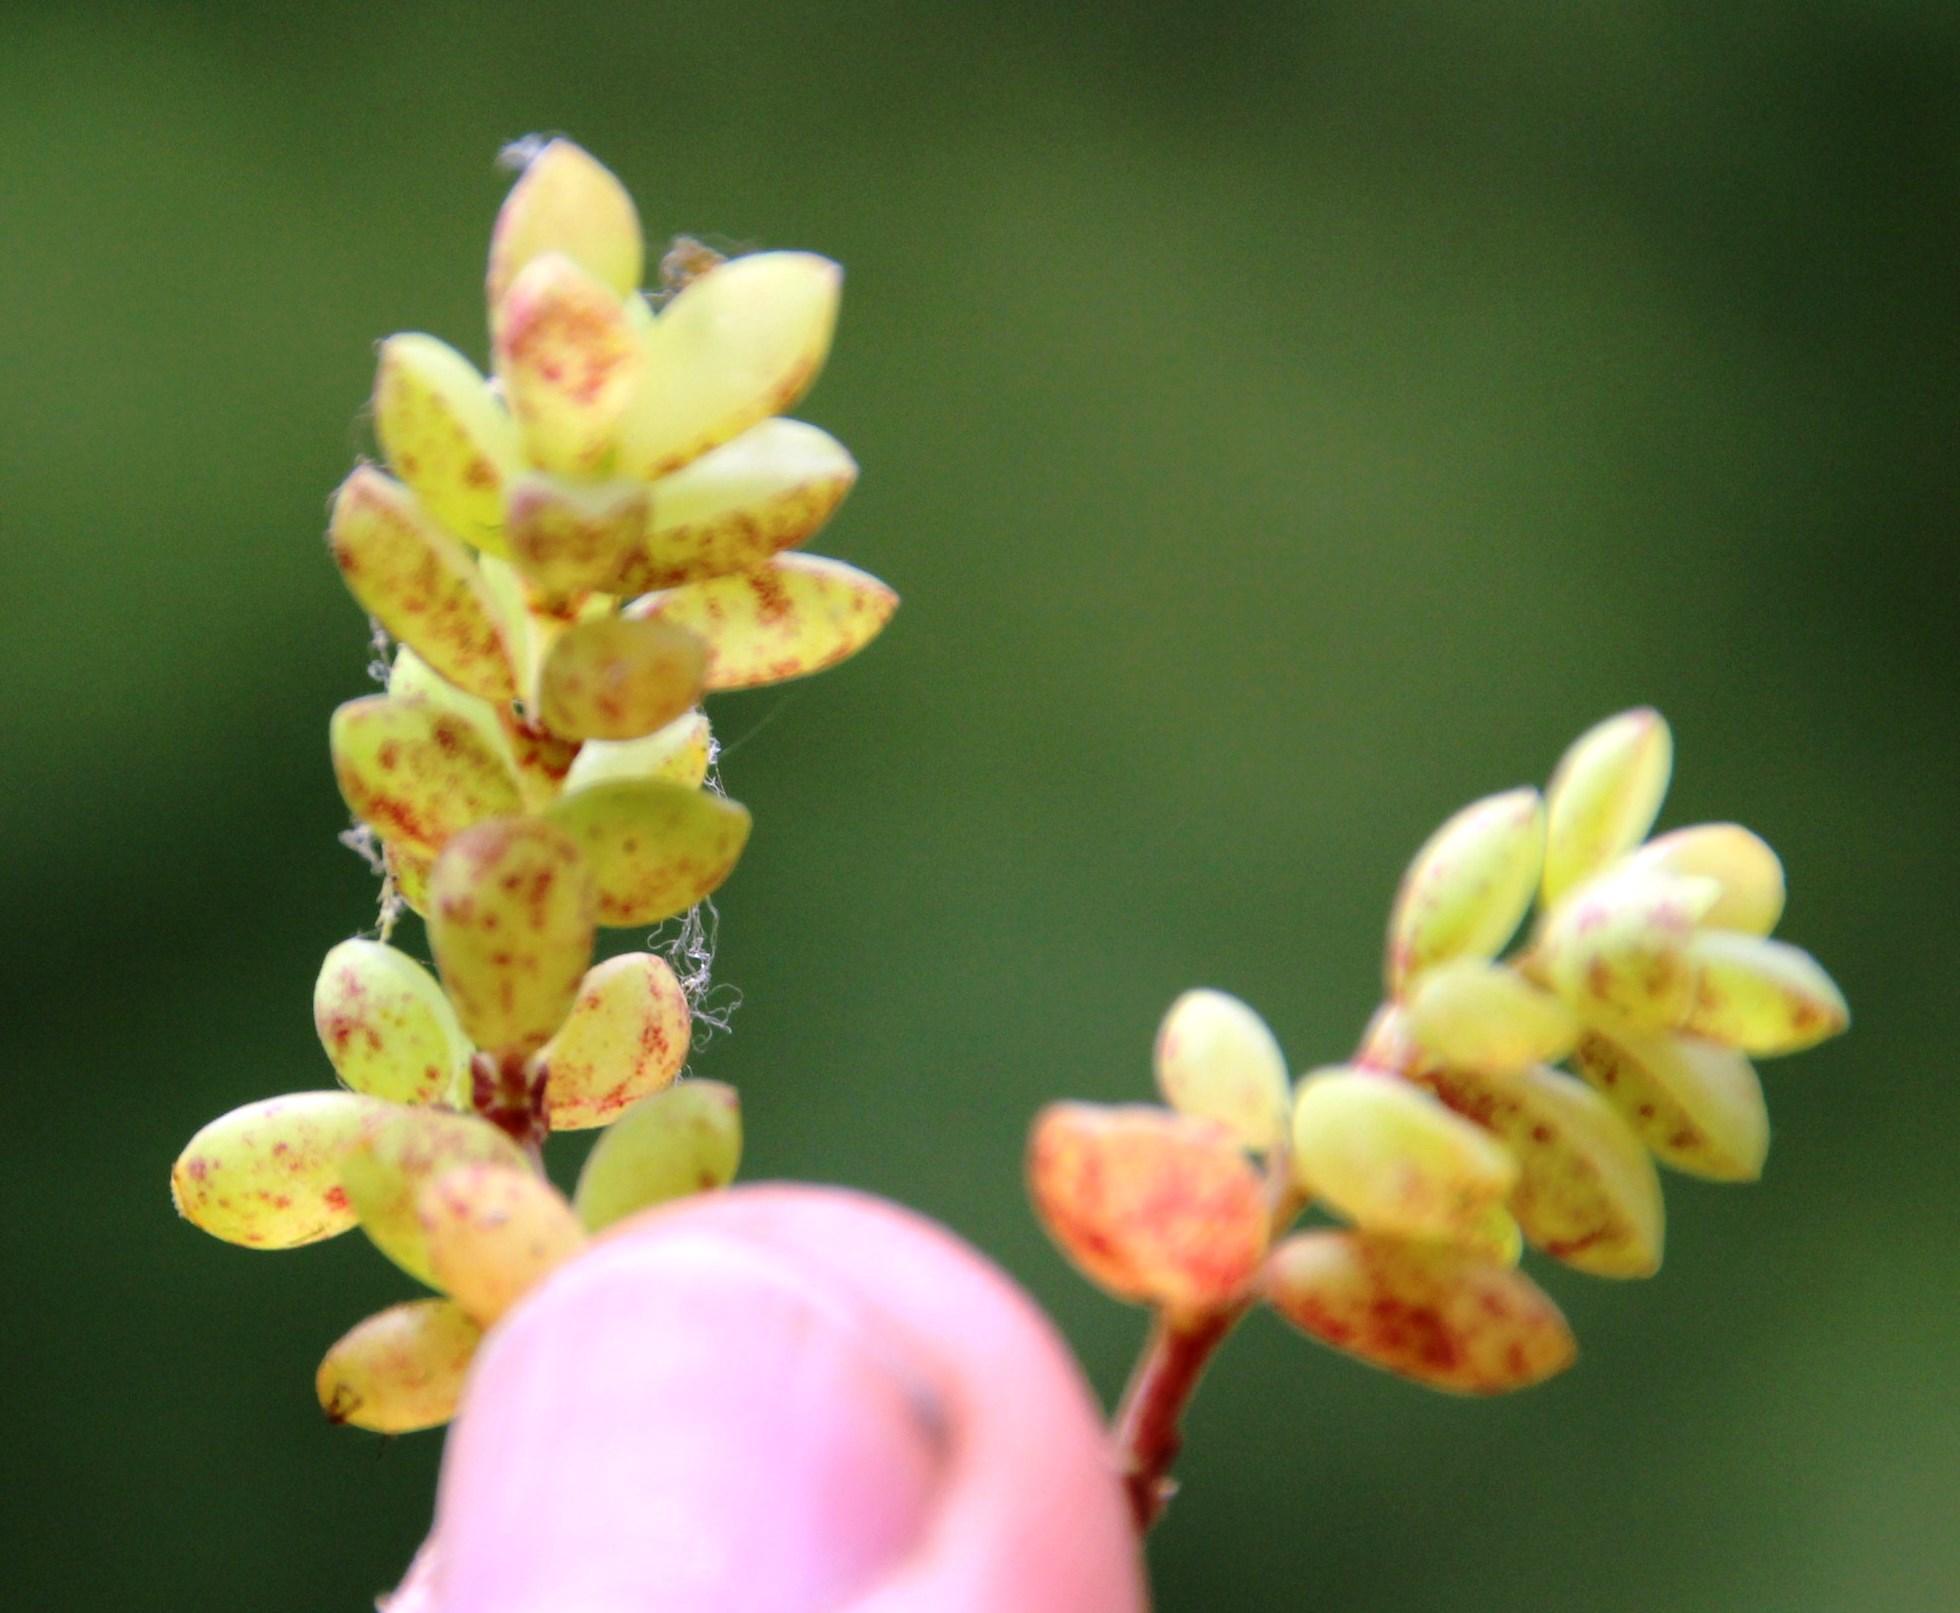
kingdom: Plantae
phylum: Tracheophyta
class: Magnoliopsida
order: Piperales
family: Piperaceae
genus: Peperomia
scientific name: Peperomia hartwegiana
